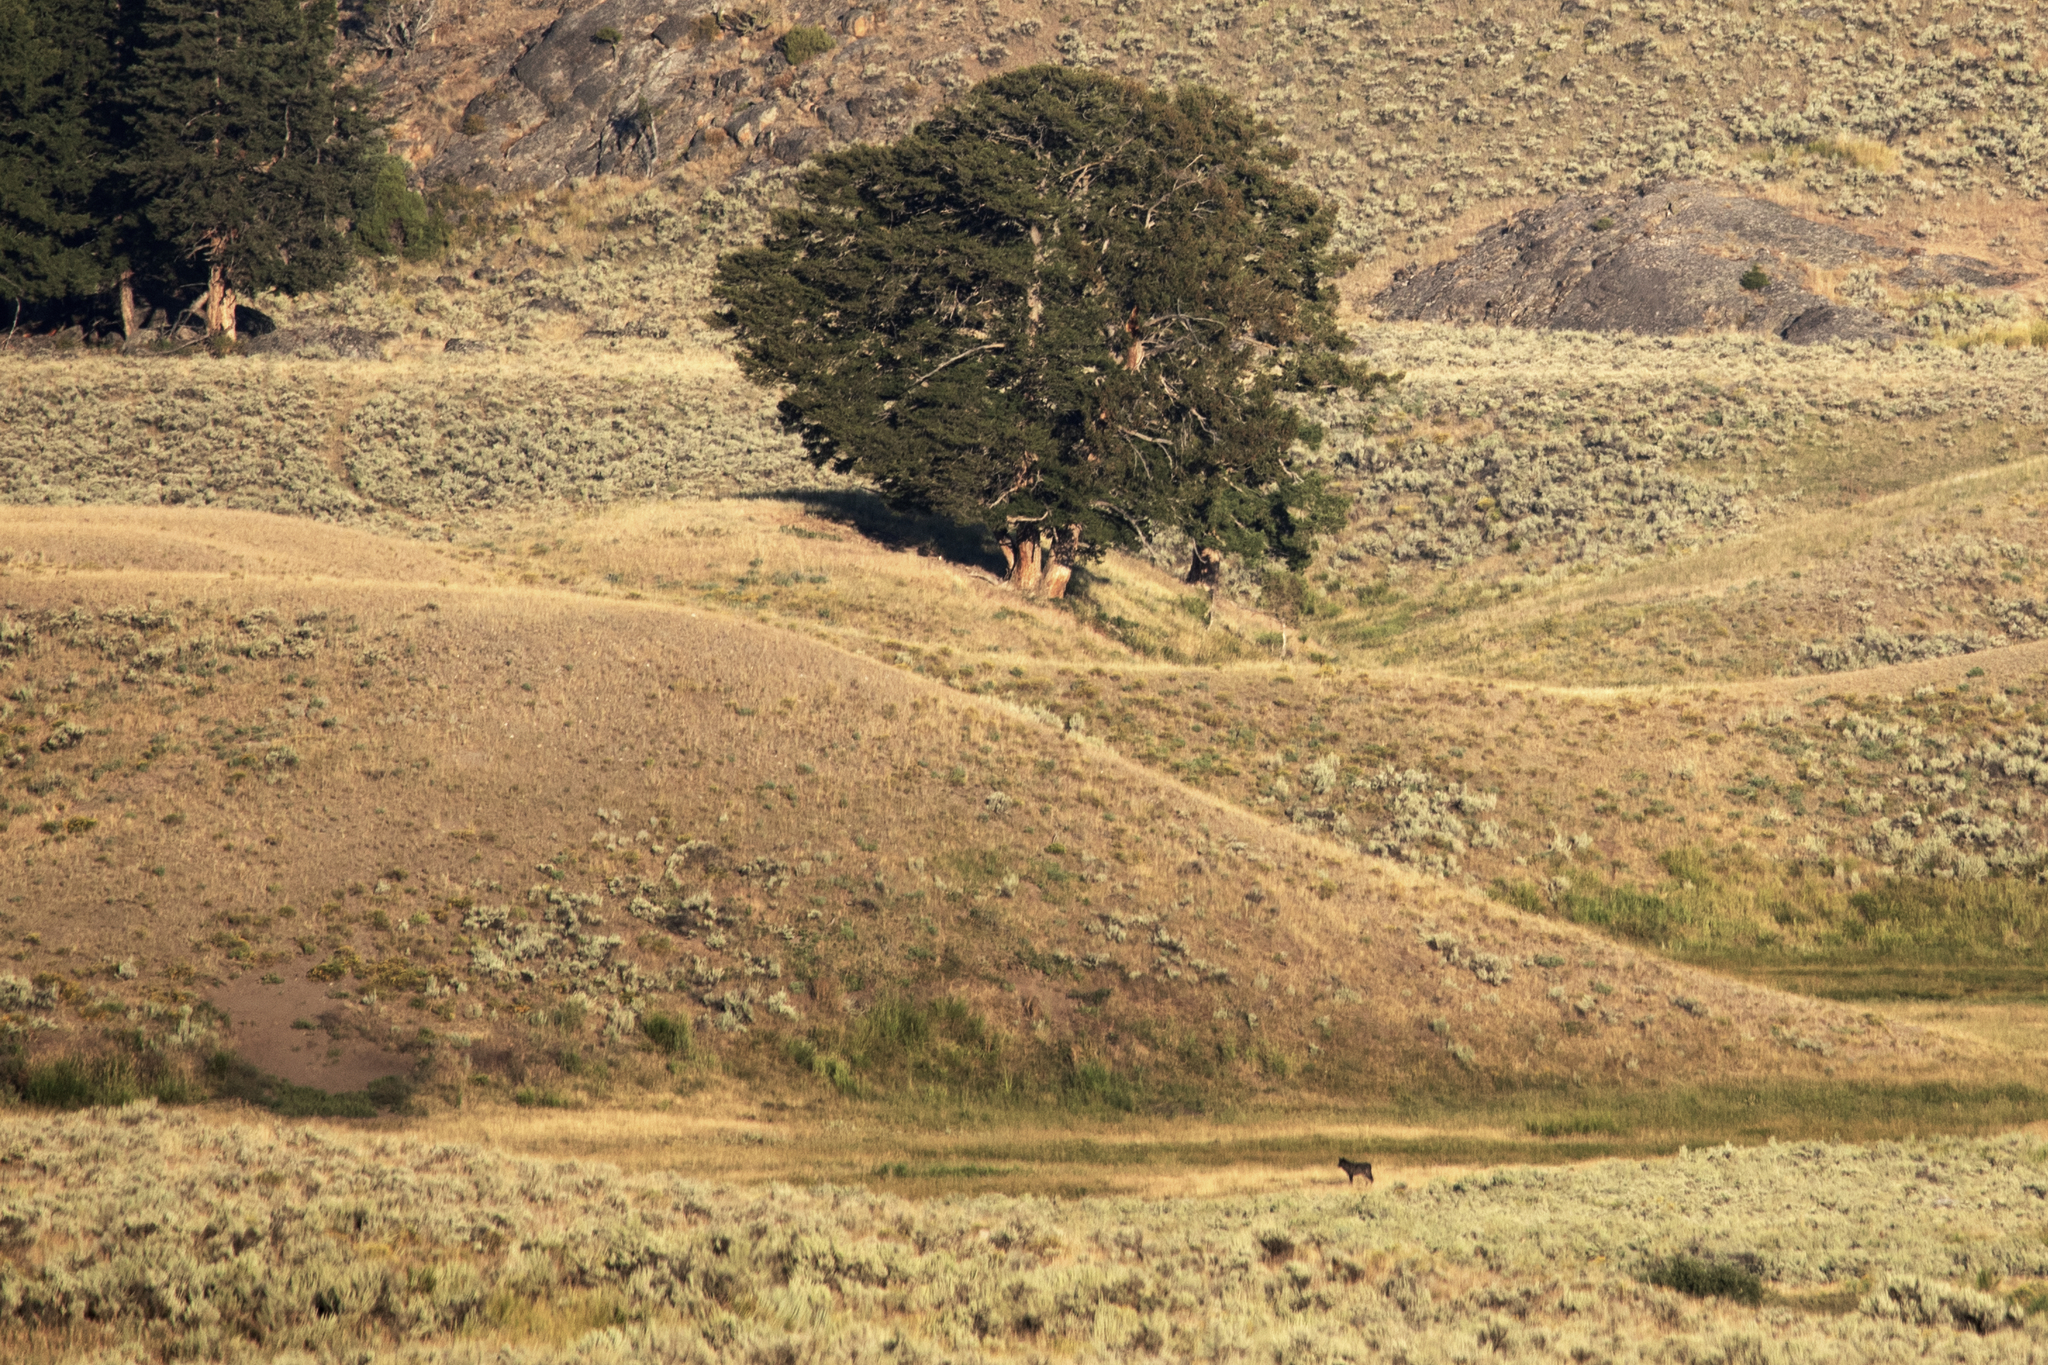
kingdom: Animalia
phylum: Chordata
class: Mammalia
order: Carnivora
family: Canidae
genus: Canis
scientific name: Canis lupus
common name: Gray wolf
